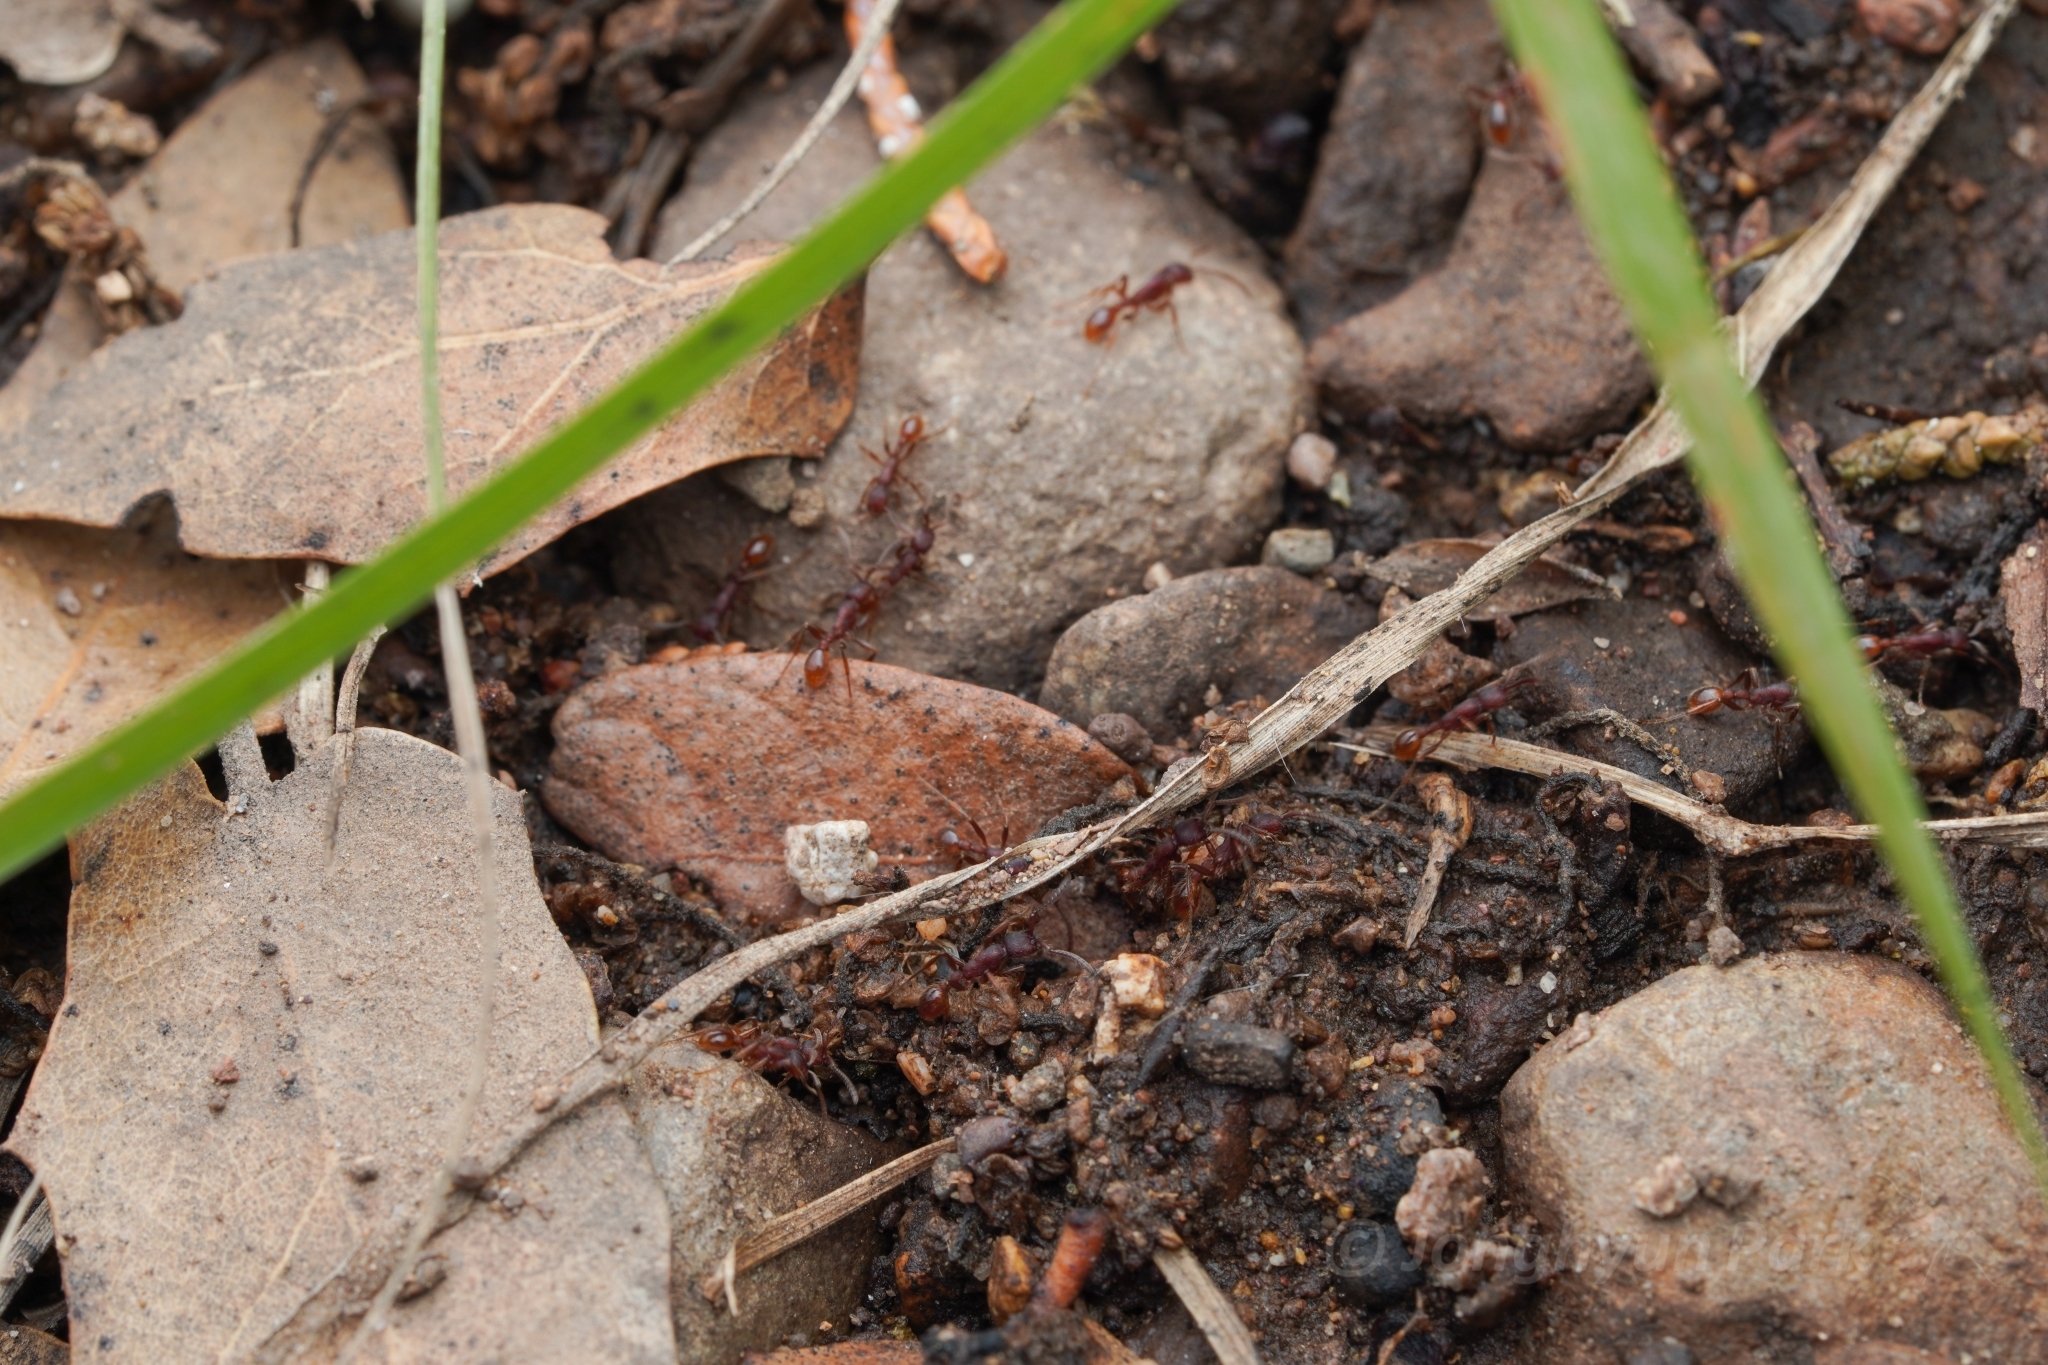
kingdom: Animalia
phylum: Arthropoda
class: Insecta
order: Hymenoptera
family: Formicidae
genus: Neivamyrmex
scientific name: Neivamyrmex nigrescens
